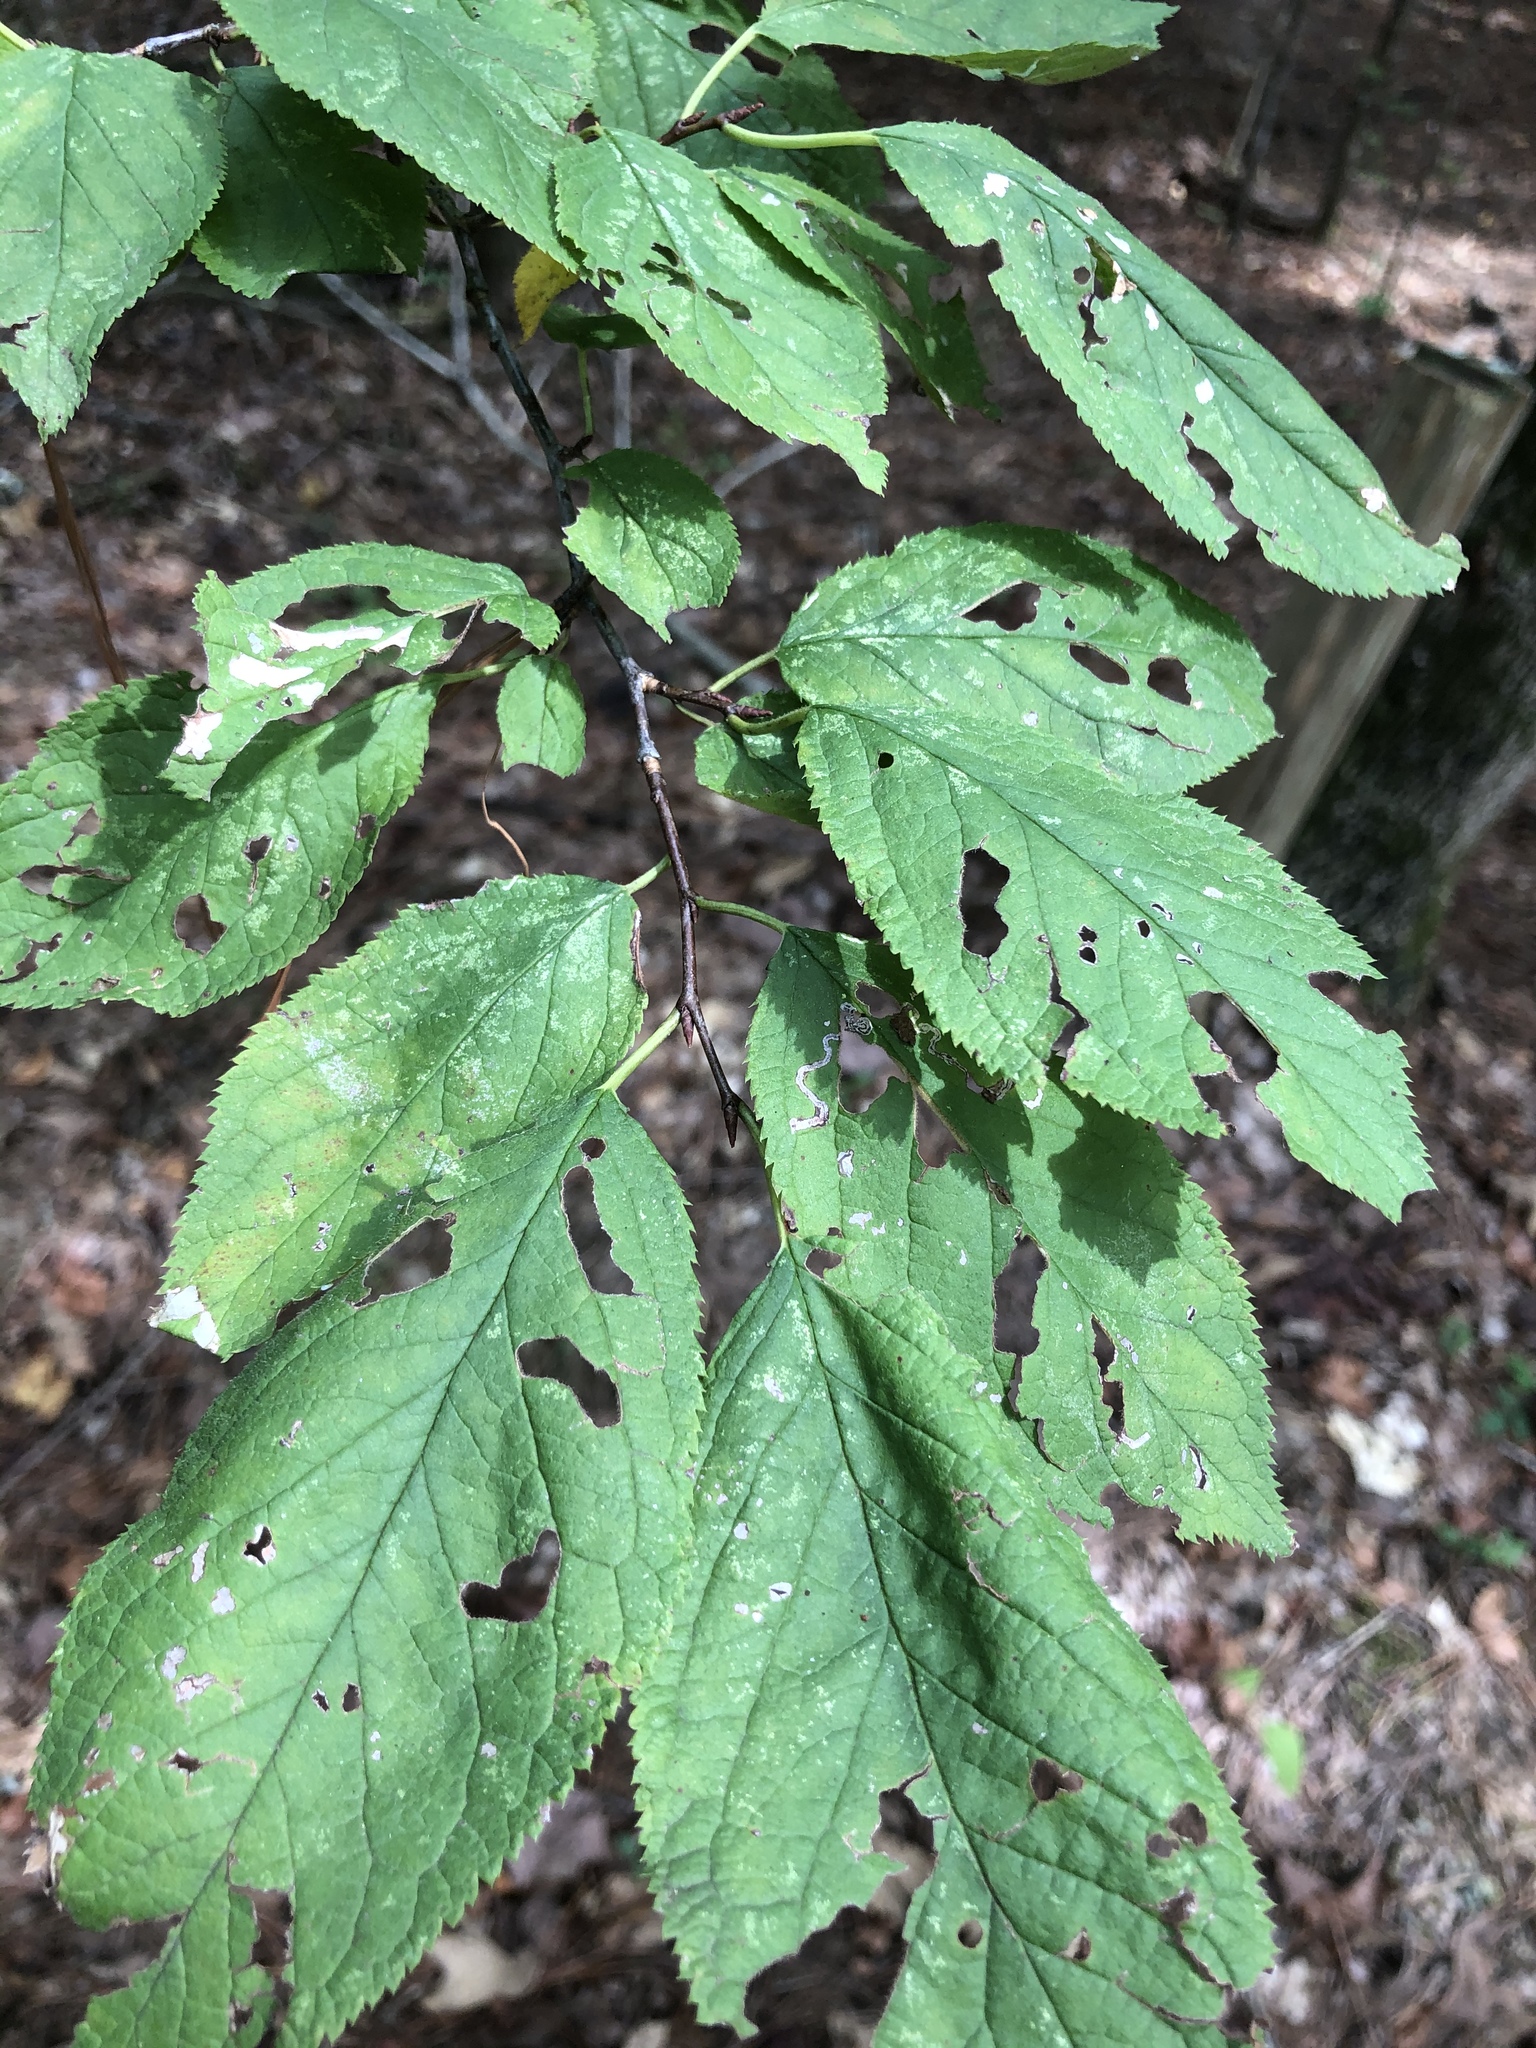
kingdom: Plantae
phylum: Tracheophyta
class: Magnoliopsida
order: Rosales
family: Rosaceae
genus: Prunus
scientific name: Prunus mexicana
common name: Mexican plum
